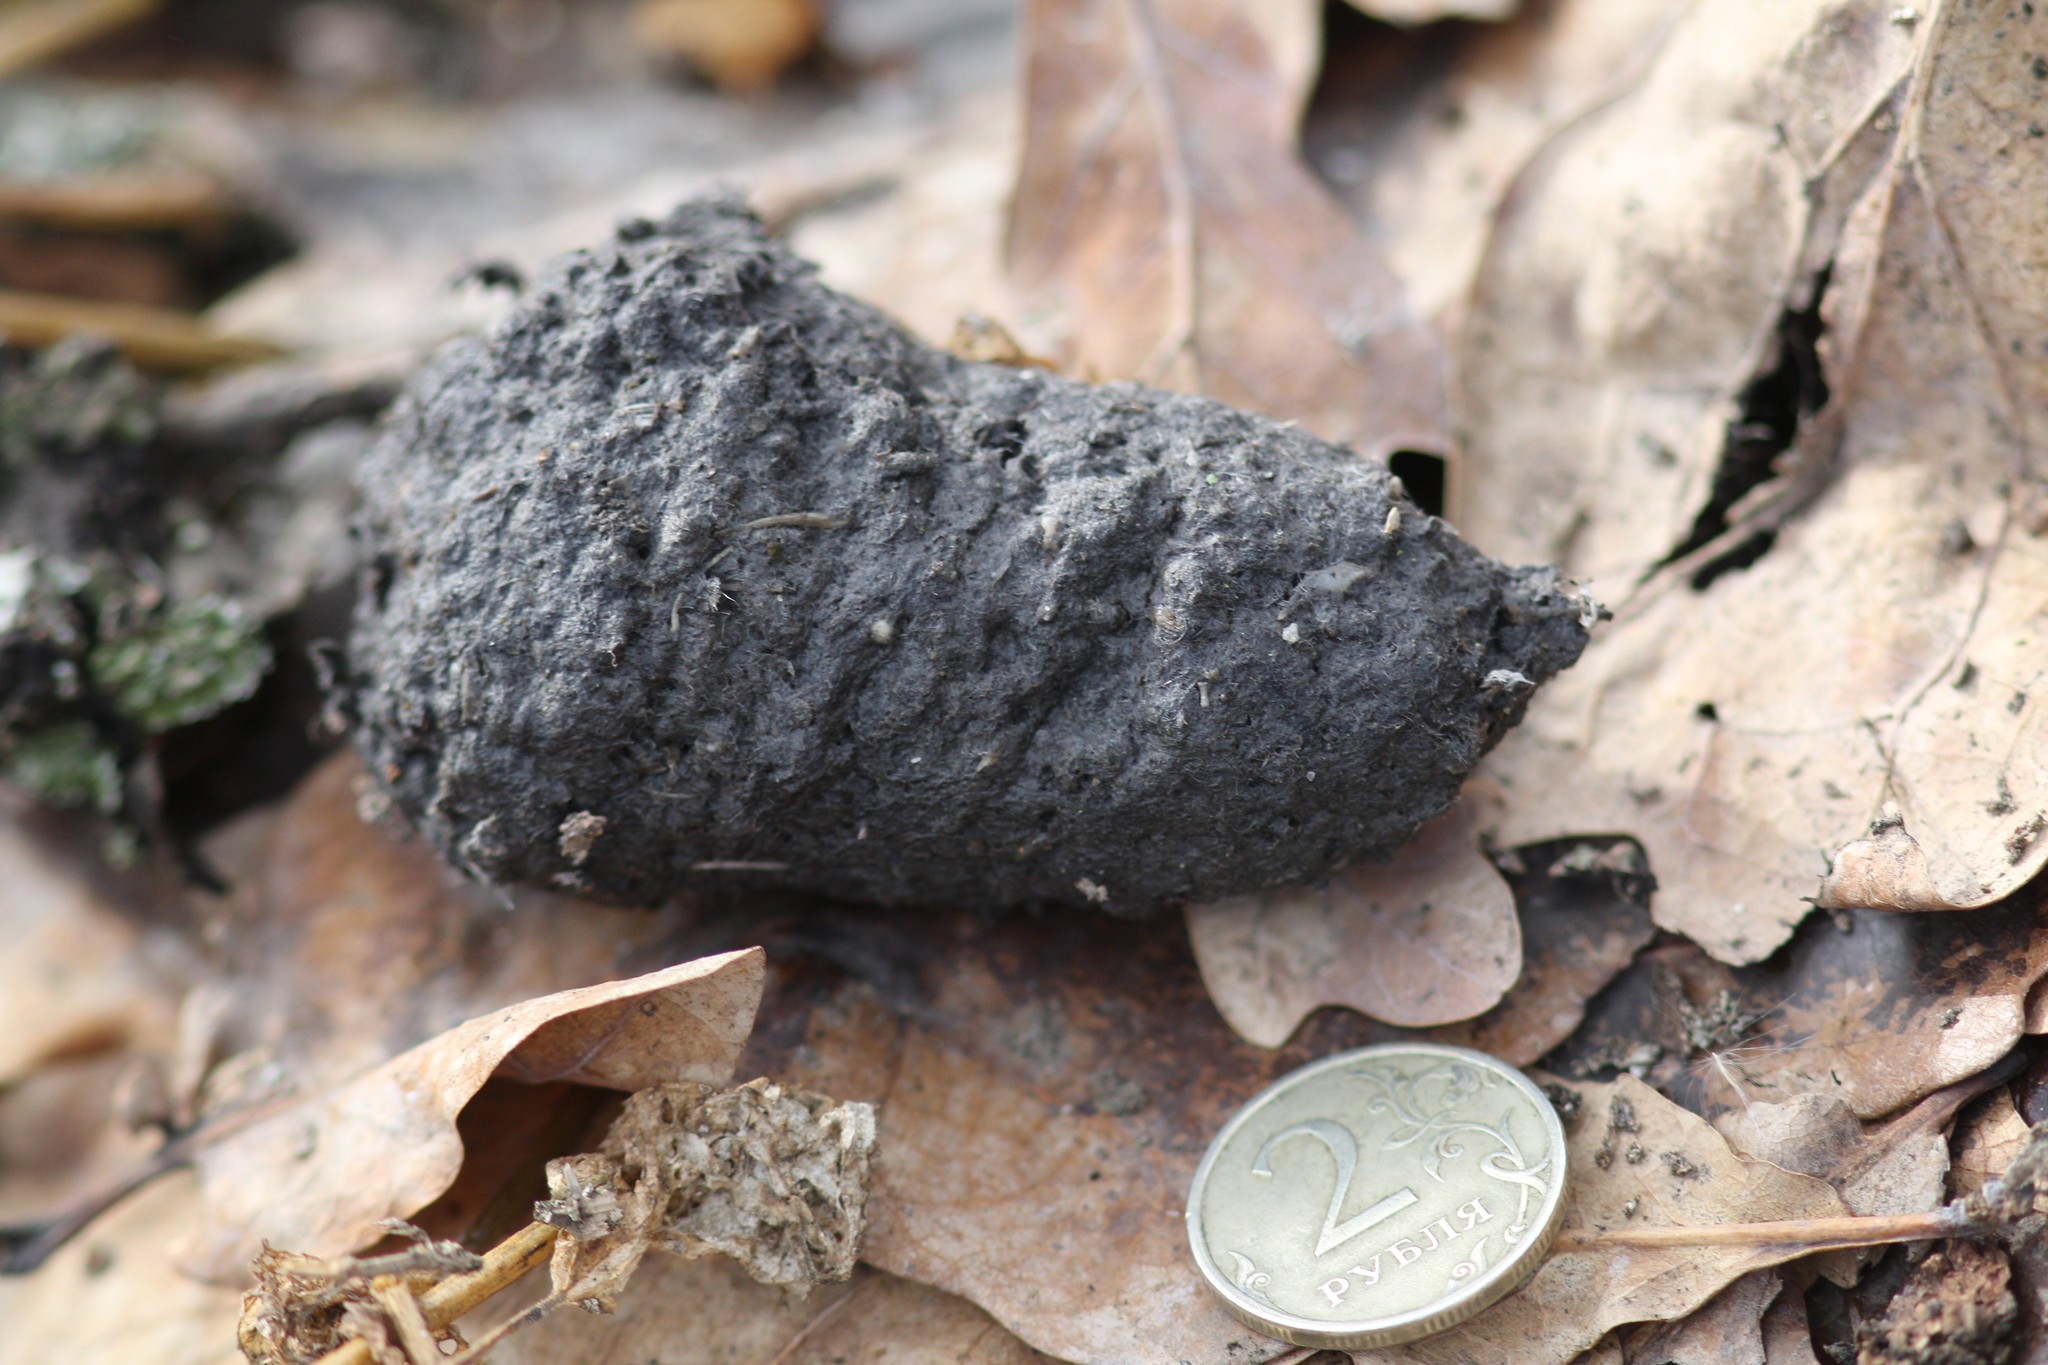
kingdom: Animalia
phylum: Chordata
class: Aves
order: Strigiformes
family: Strigidae
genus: Bubo
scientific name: Bubo bubo
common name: Eurasian eagle-owl
